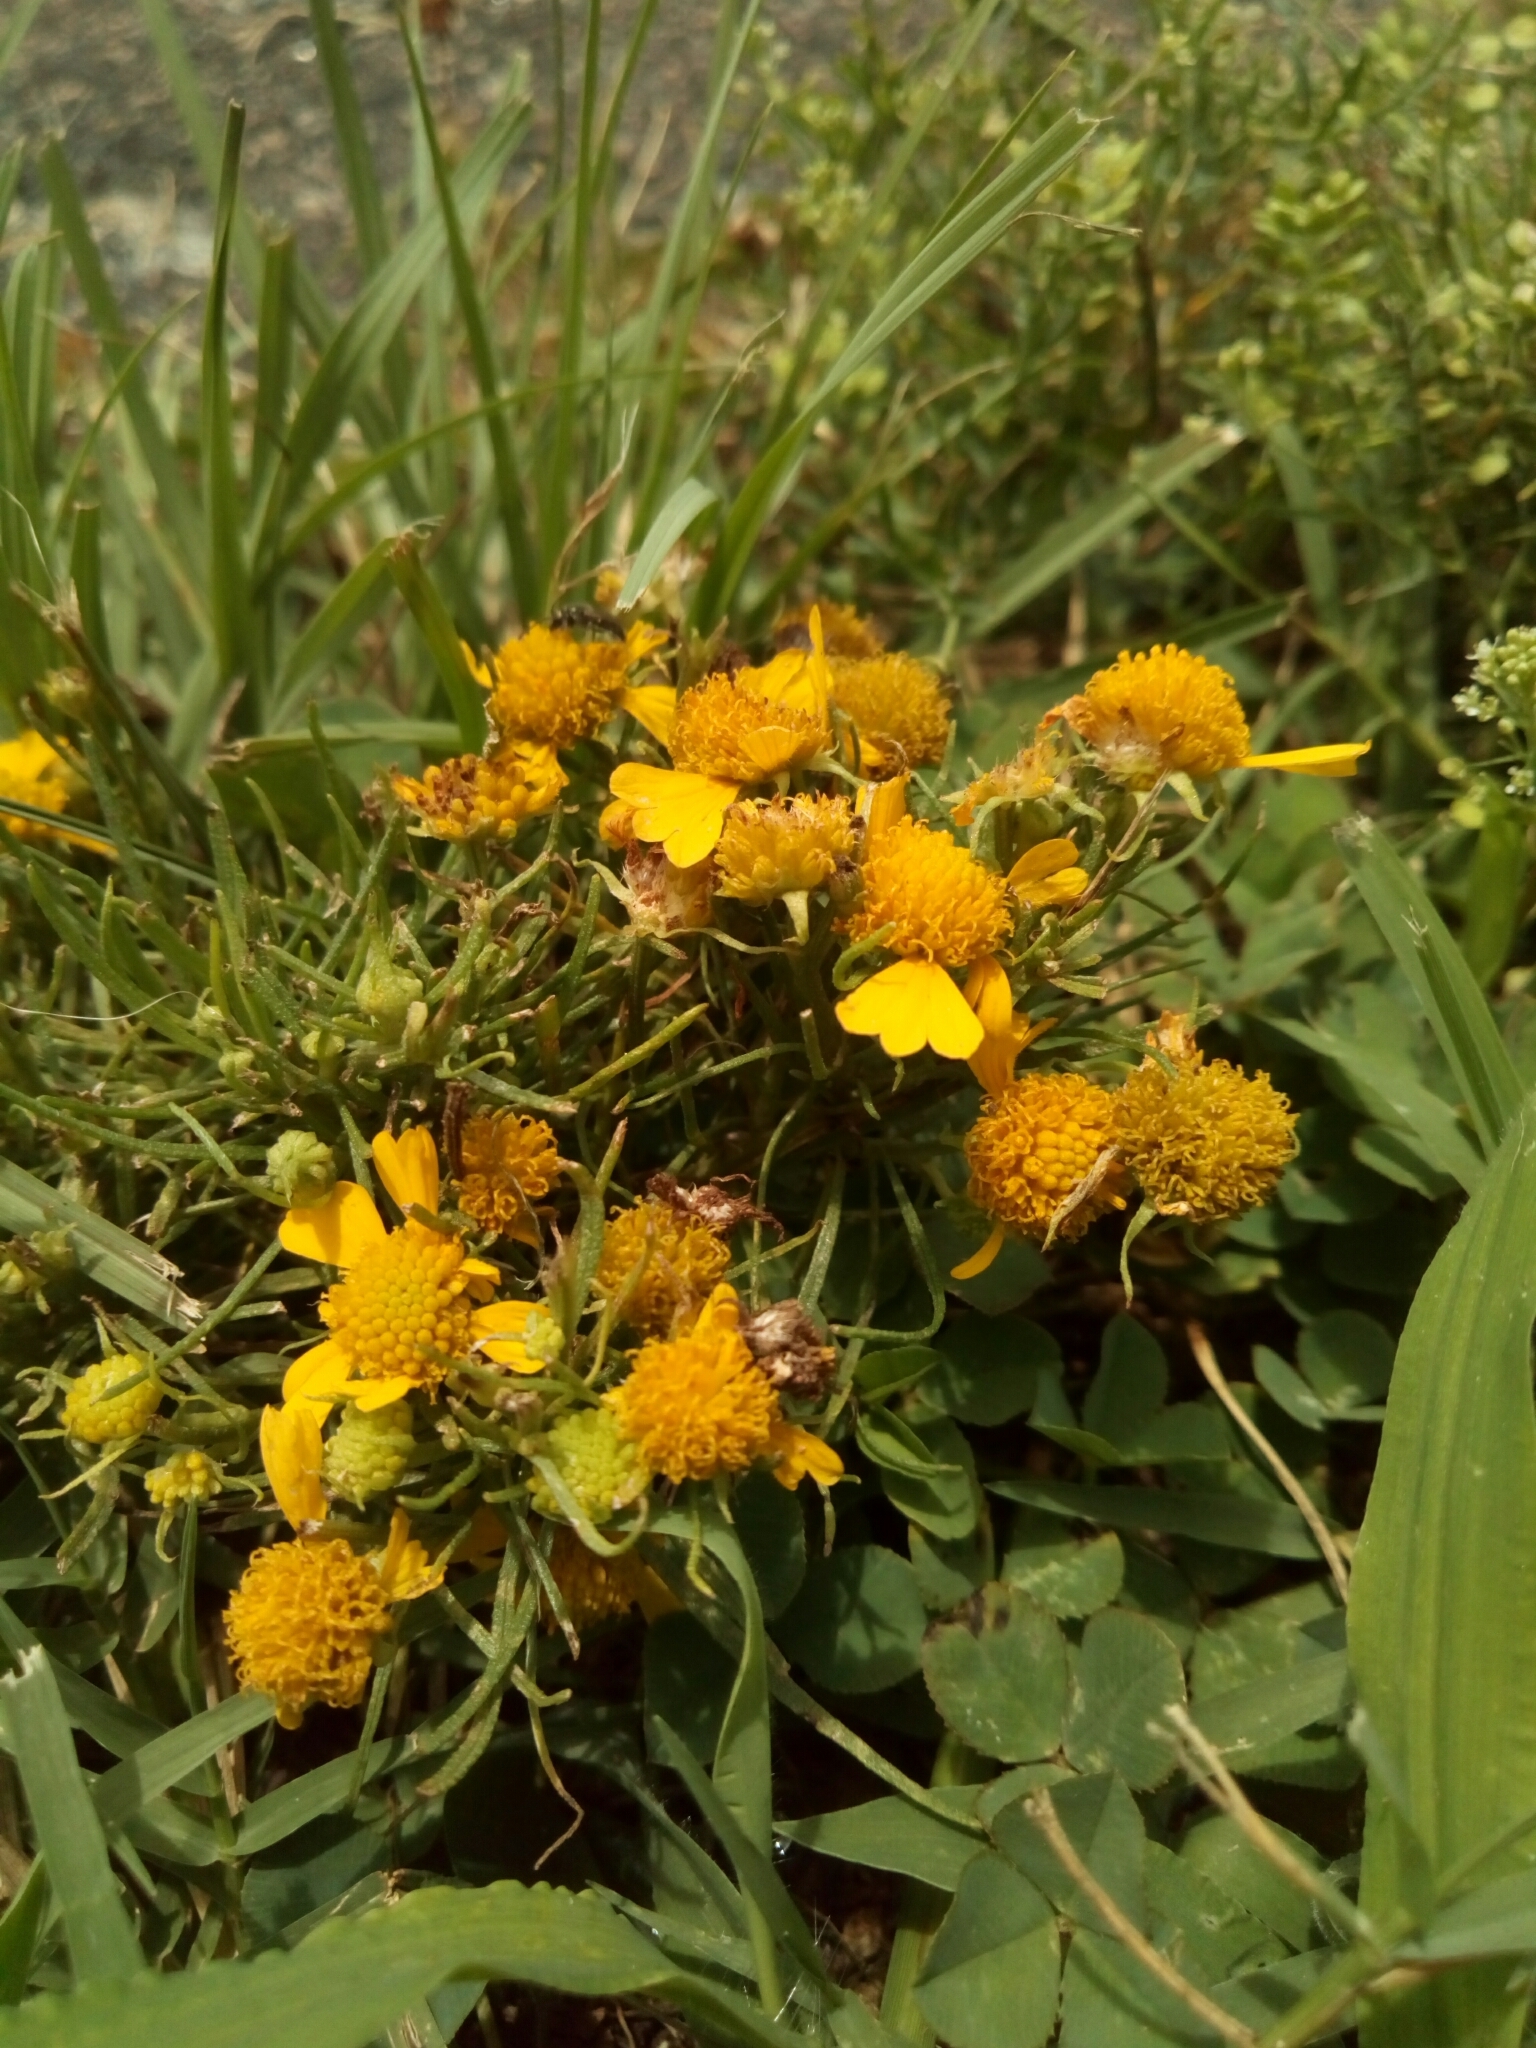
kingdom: Plantae
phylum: Tracheophyta
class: Magnoliopsida
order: Asterales
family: Asteraceae
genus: Helenium
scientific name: Helenium amarum
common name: Bitter sneezeweed
